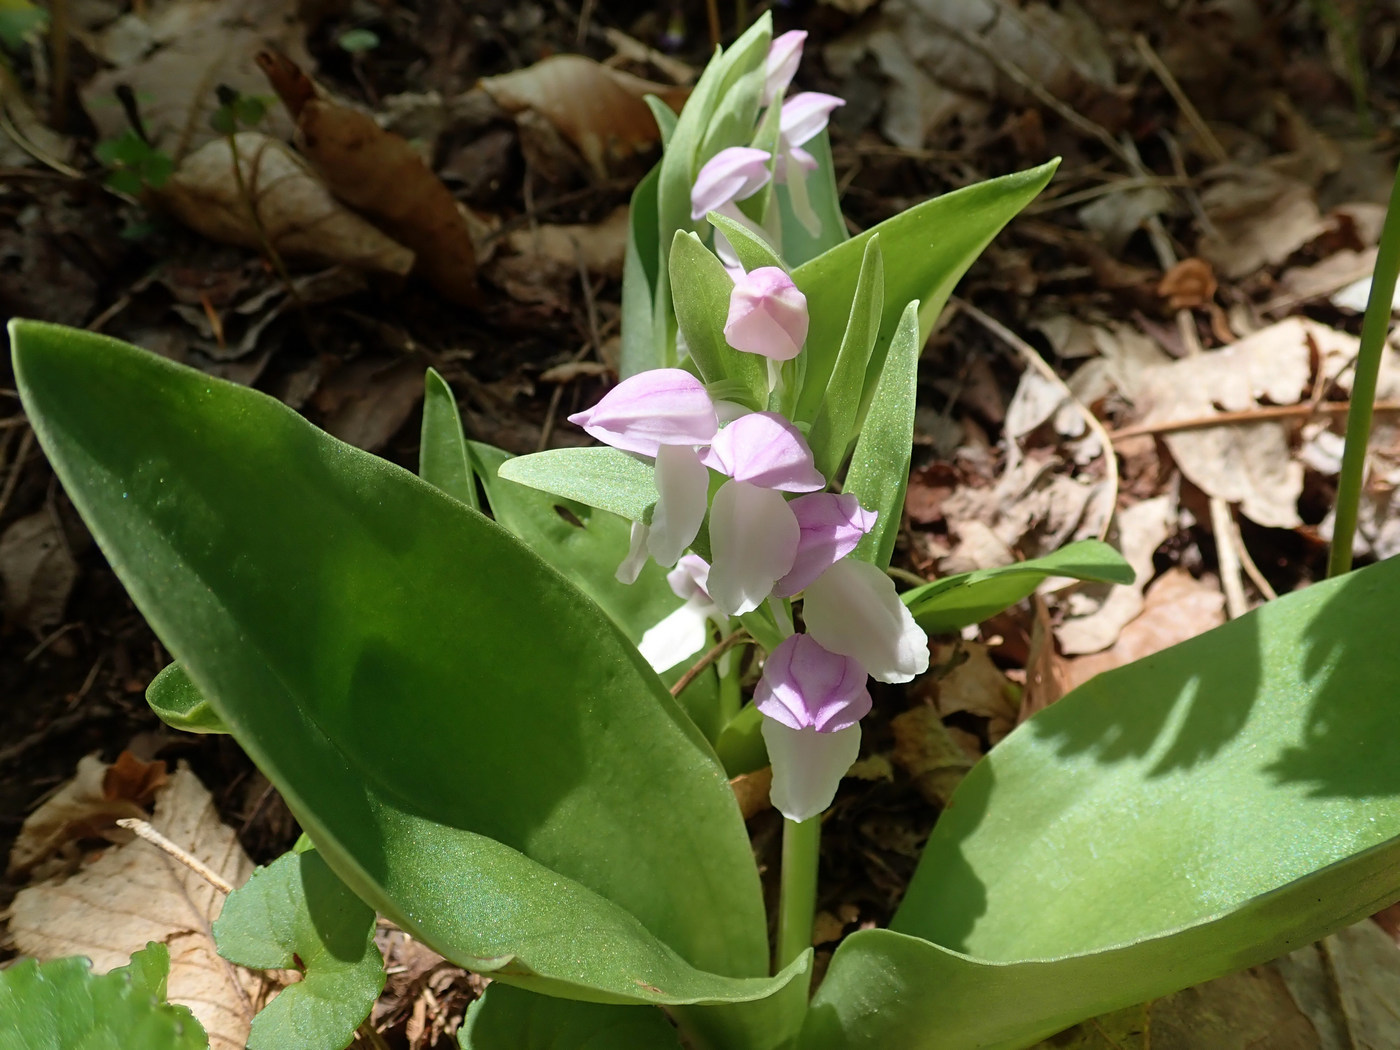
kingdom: Plantae
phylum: Tracheophyta
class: Liliopsida
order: Asparagales
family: Orchidaceae
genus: Galearis
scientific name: Galearis spectabilis
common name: Purple-hooded orchis
